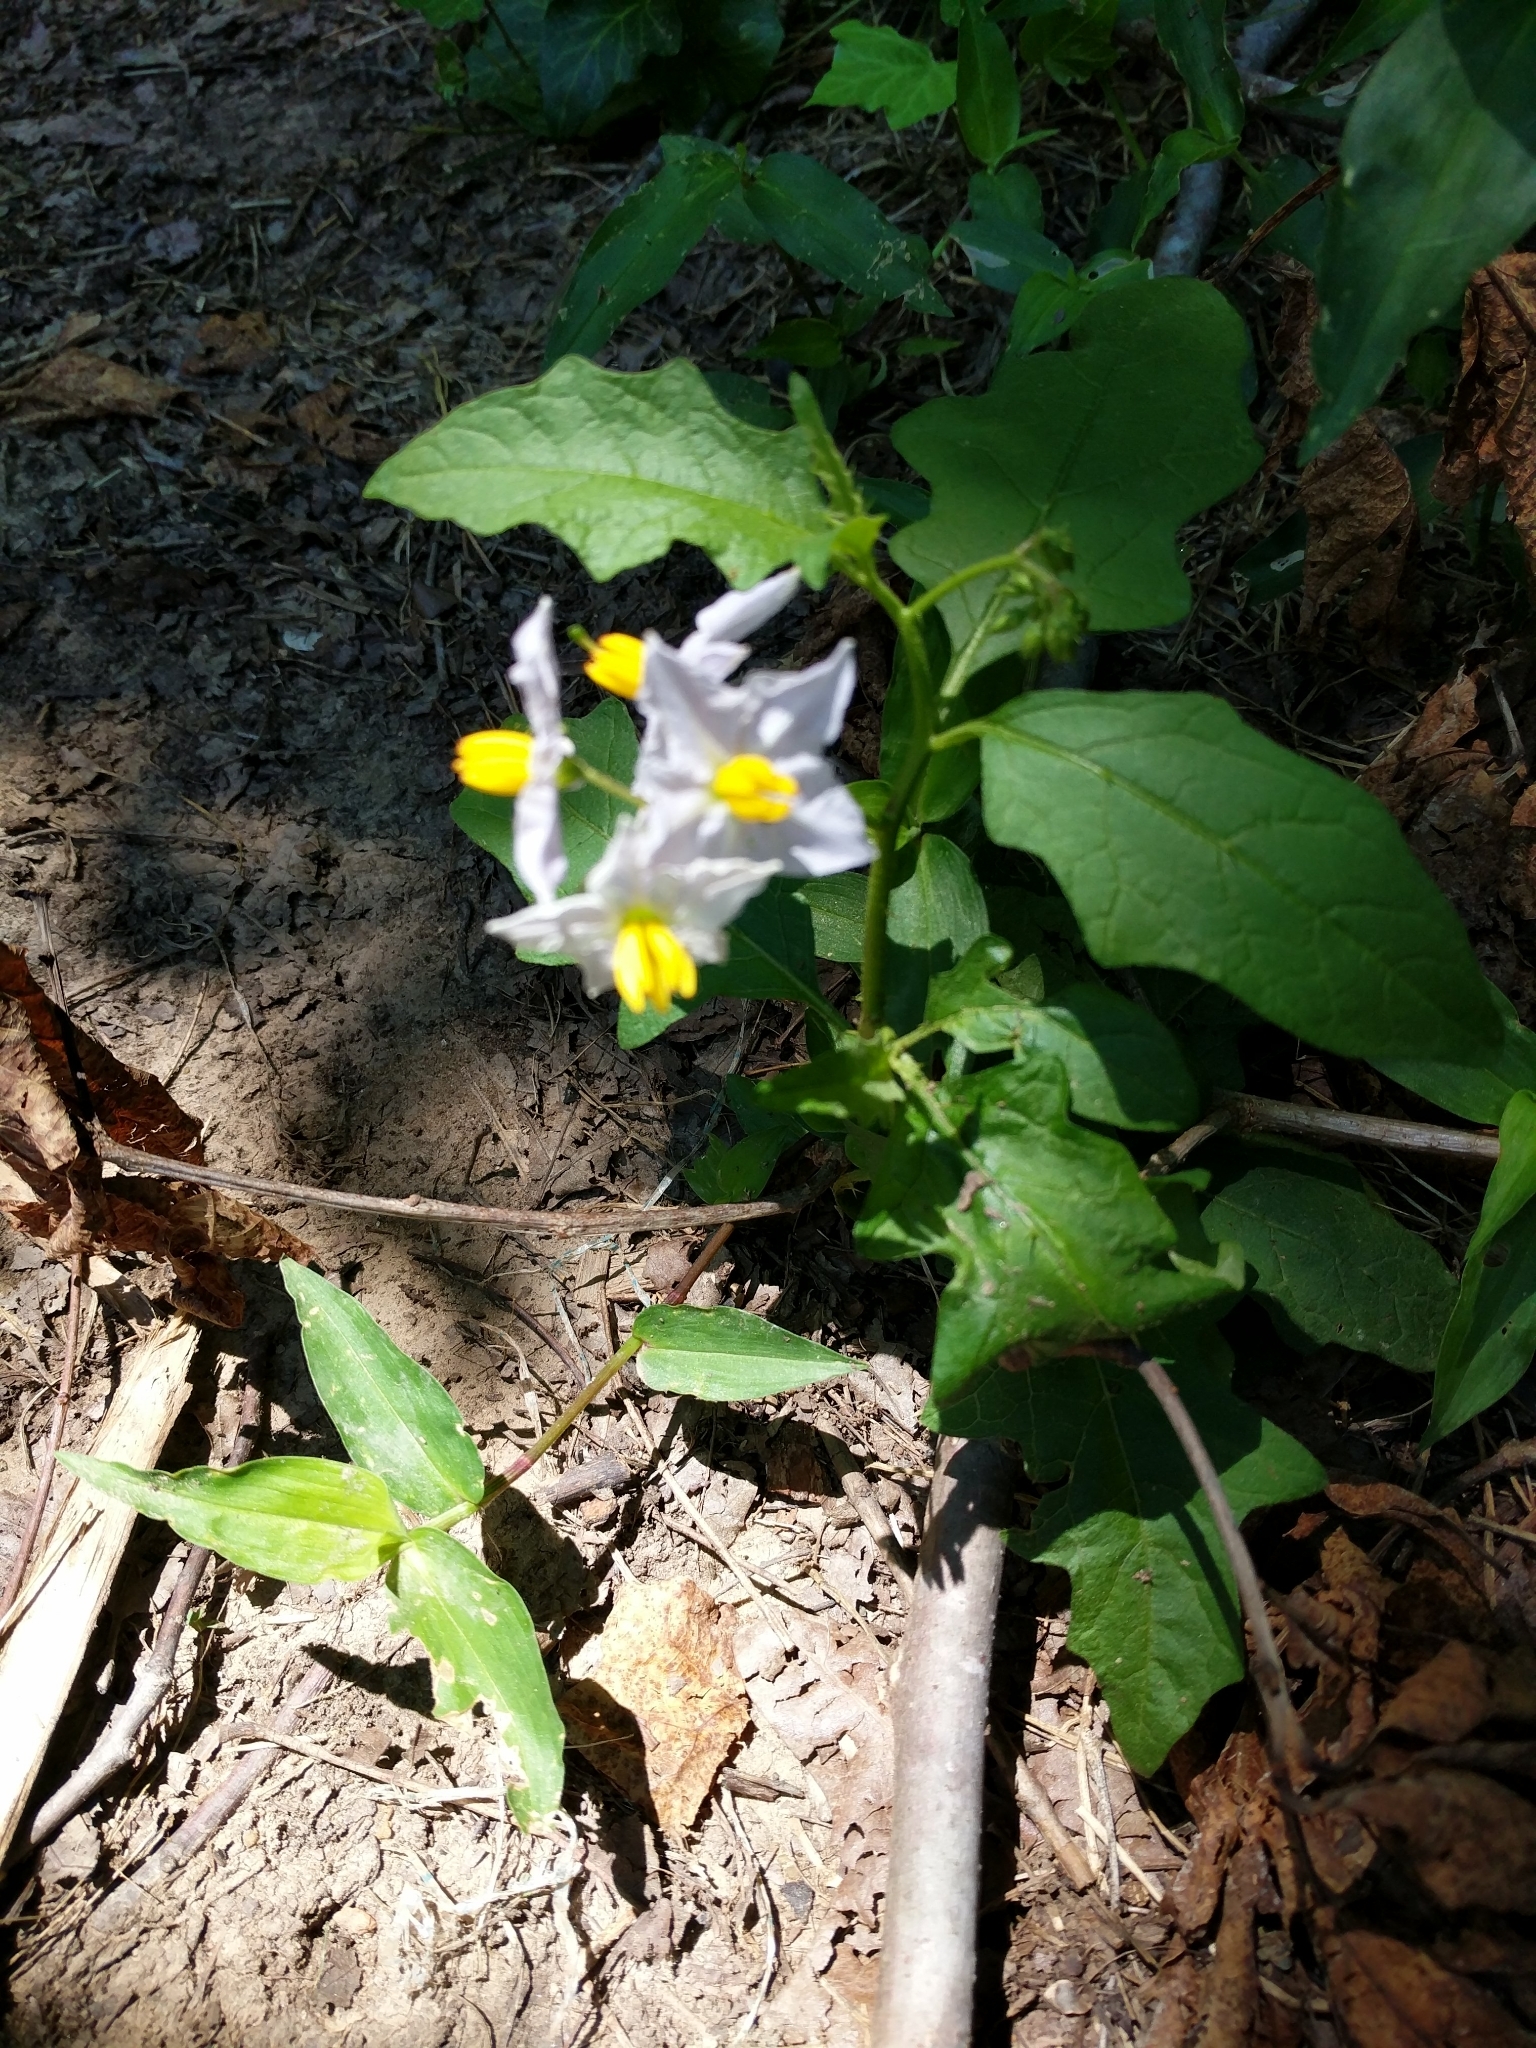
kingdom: Plantae
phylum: Tracheophyta
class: Magnoliopsida
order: Solanales
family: Solanaceae
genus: Solanum
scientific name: Solanum carolinense
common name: Horse-nettle
